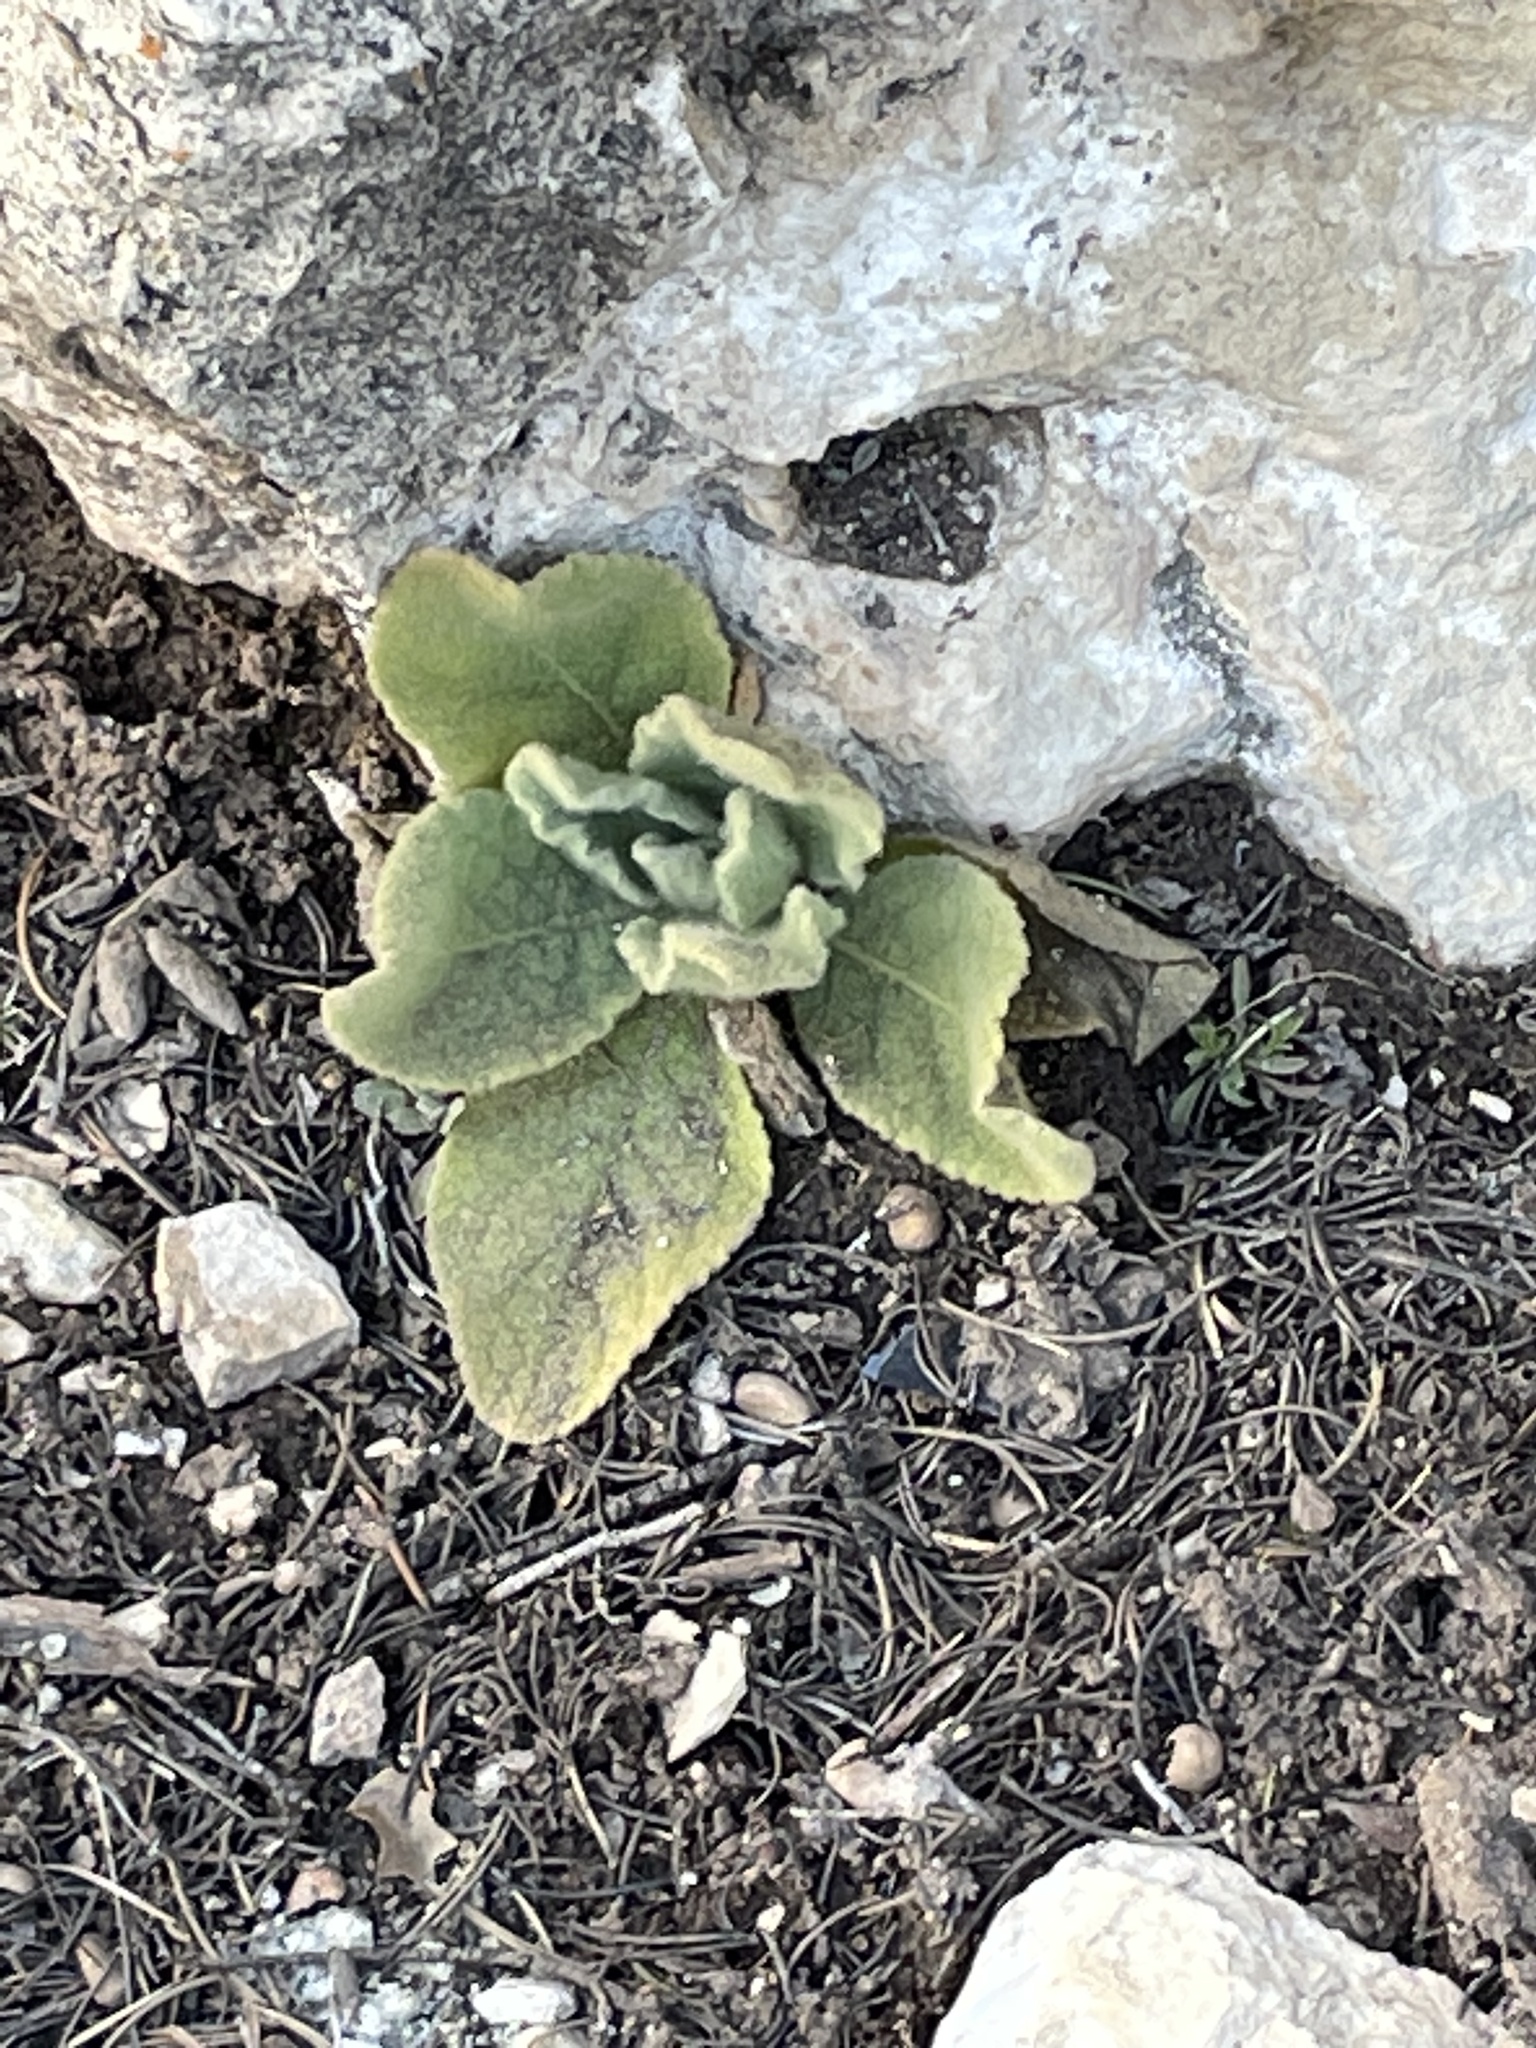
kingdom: Plantae
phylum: Tracheophyta
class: Magnoliopsida
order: Lamiales
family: Scrophulariaceae
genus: Verbascum
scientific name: Verbascum thapsus
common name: Common mullein
